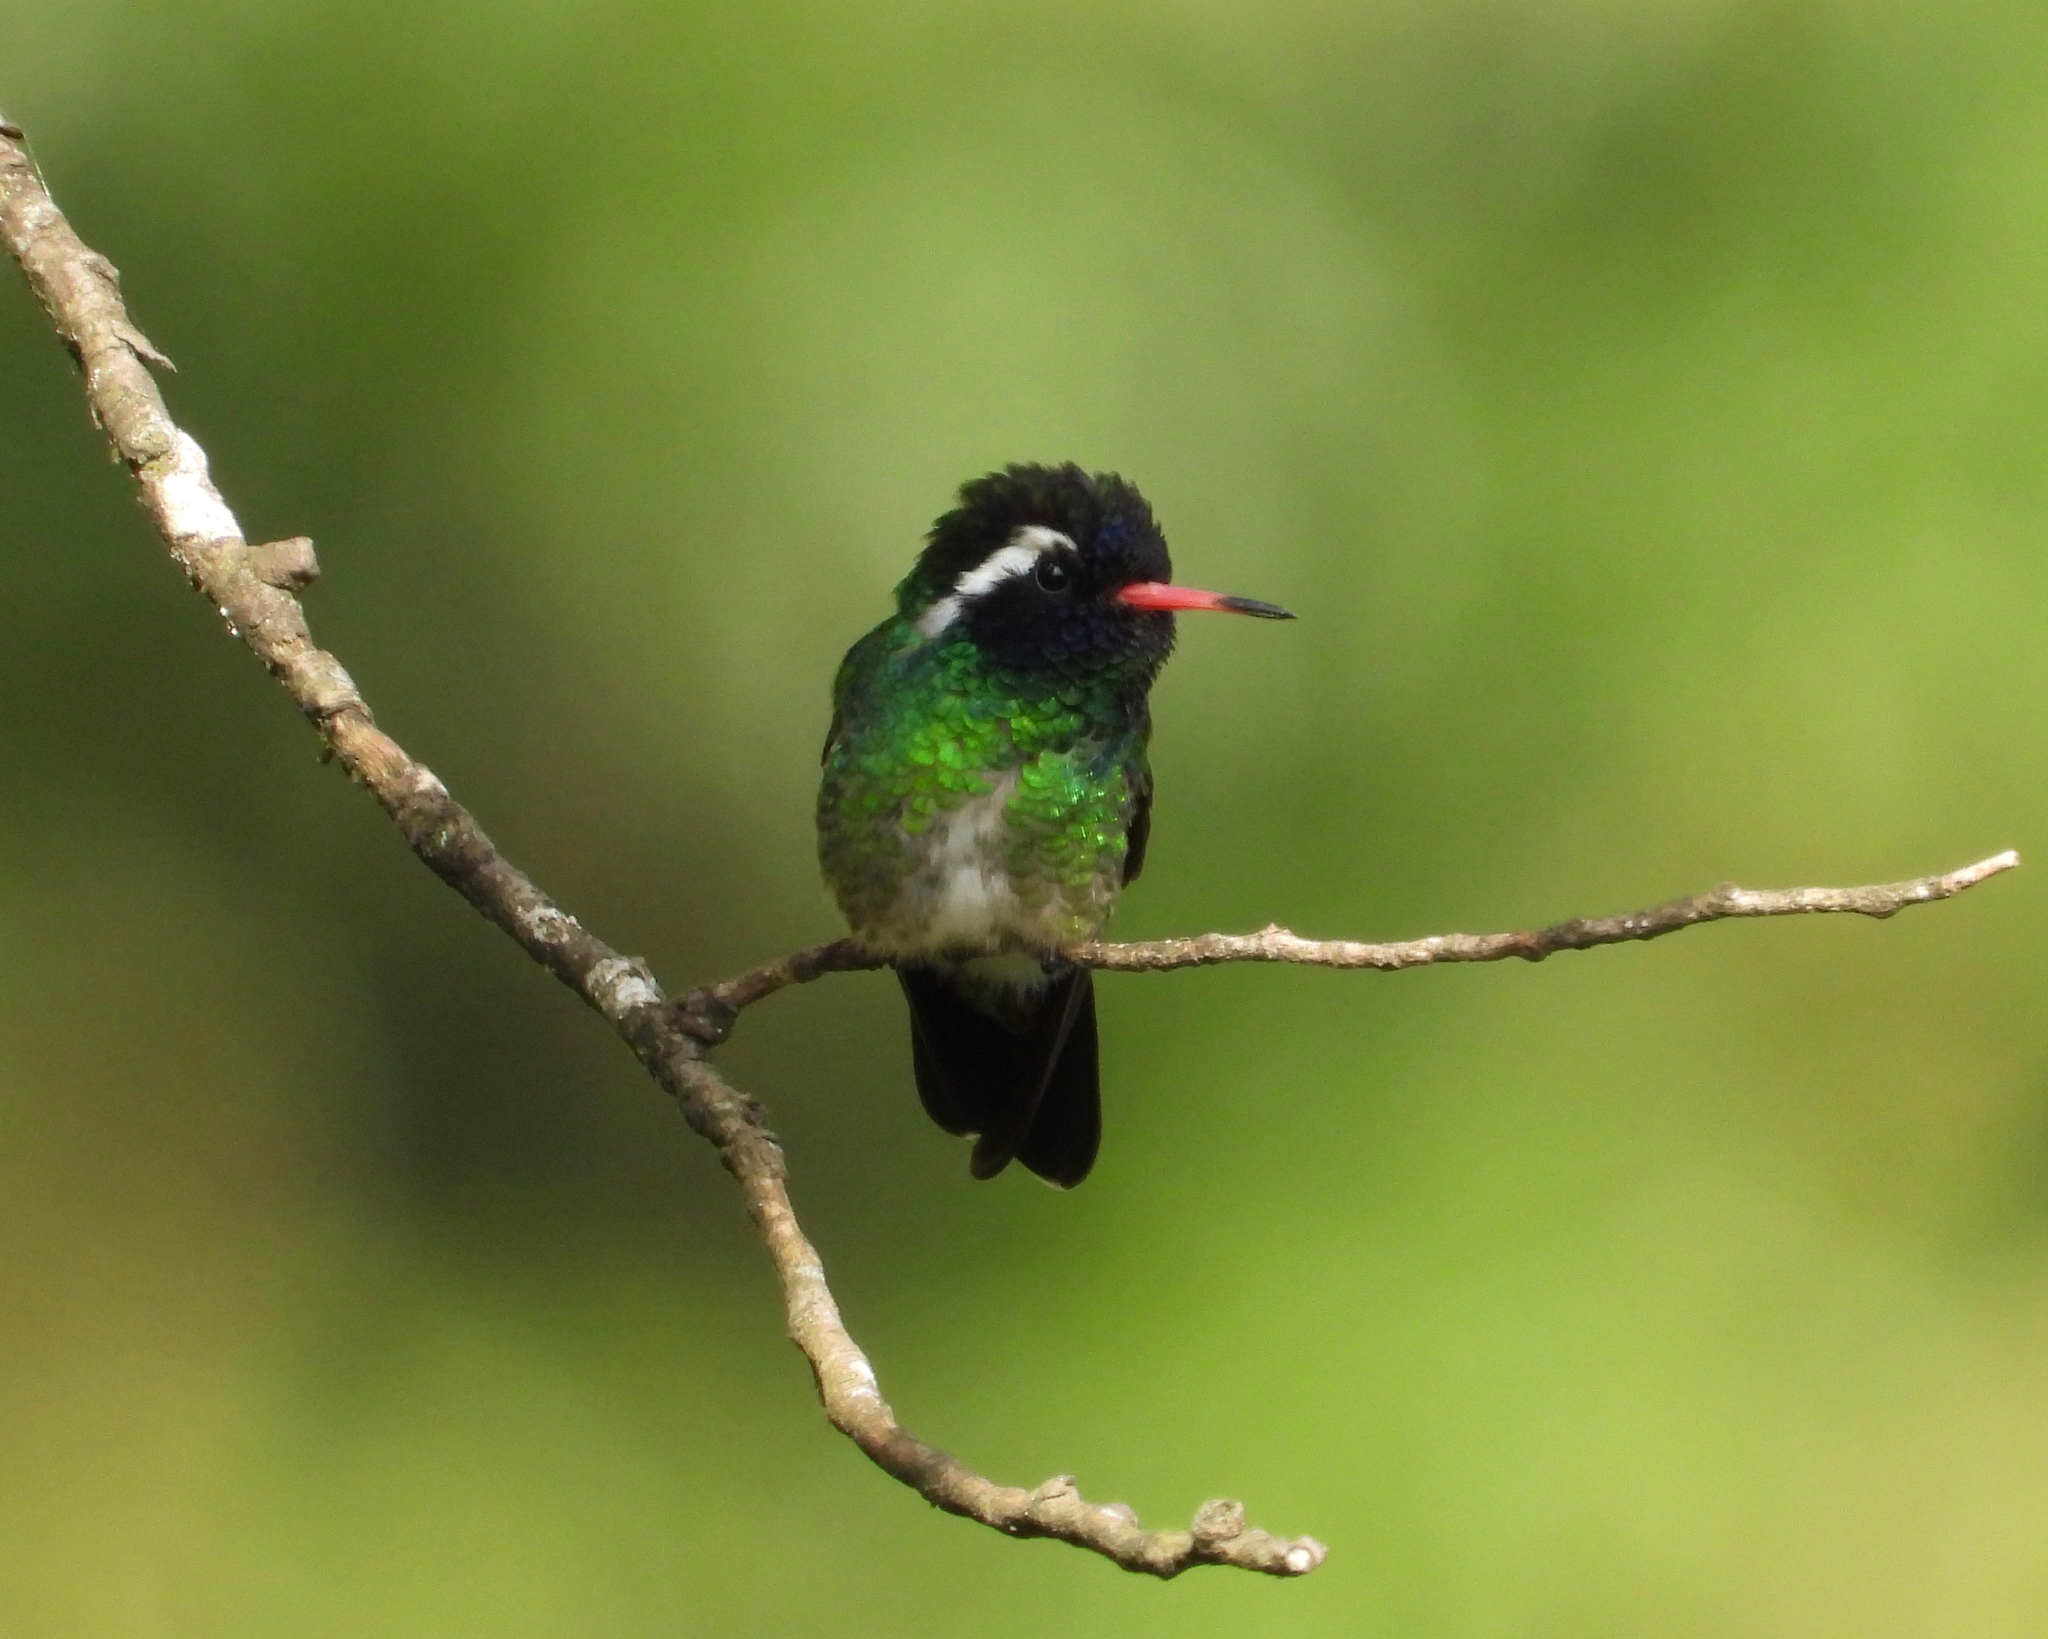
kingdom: Animalia
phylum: Chordata
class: Aves
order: Apodiformes
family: Trochilidae
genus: Basilinna
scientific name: Basilinna leucotis
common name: White-eared hummingbird
